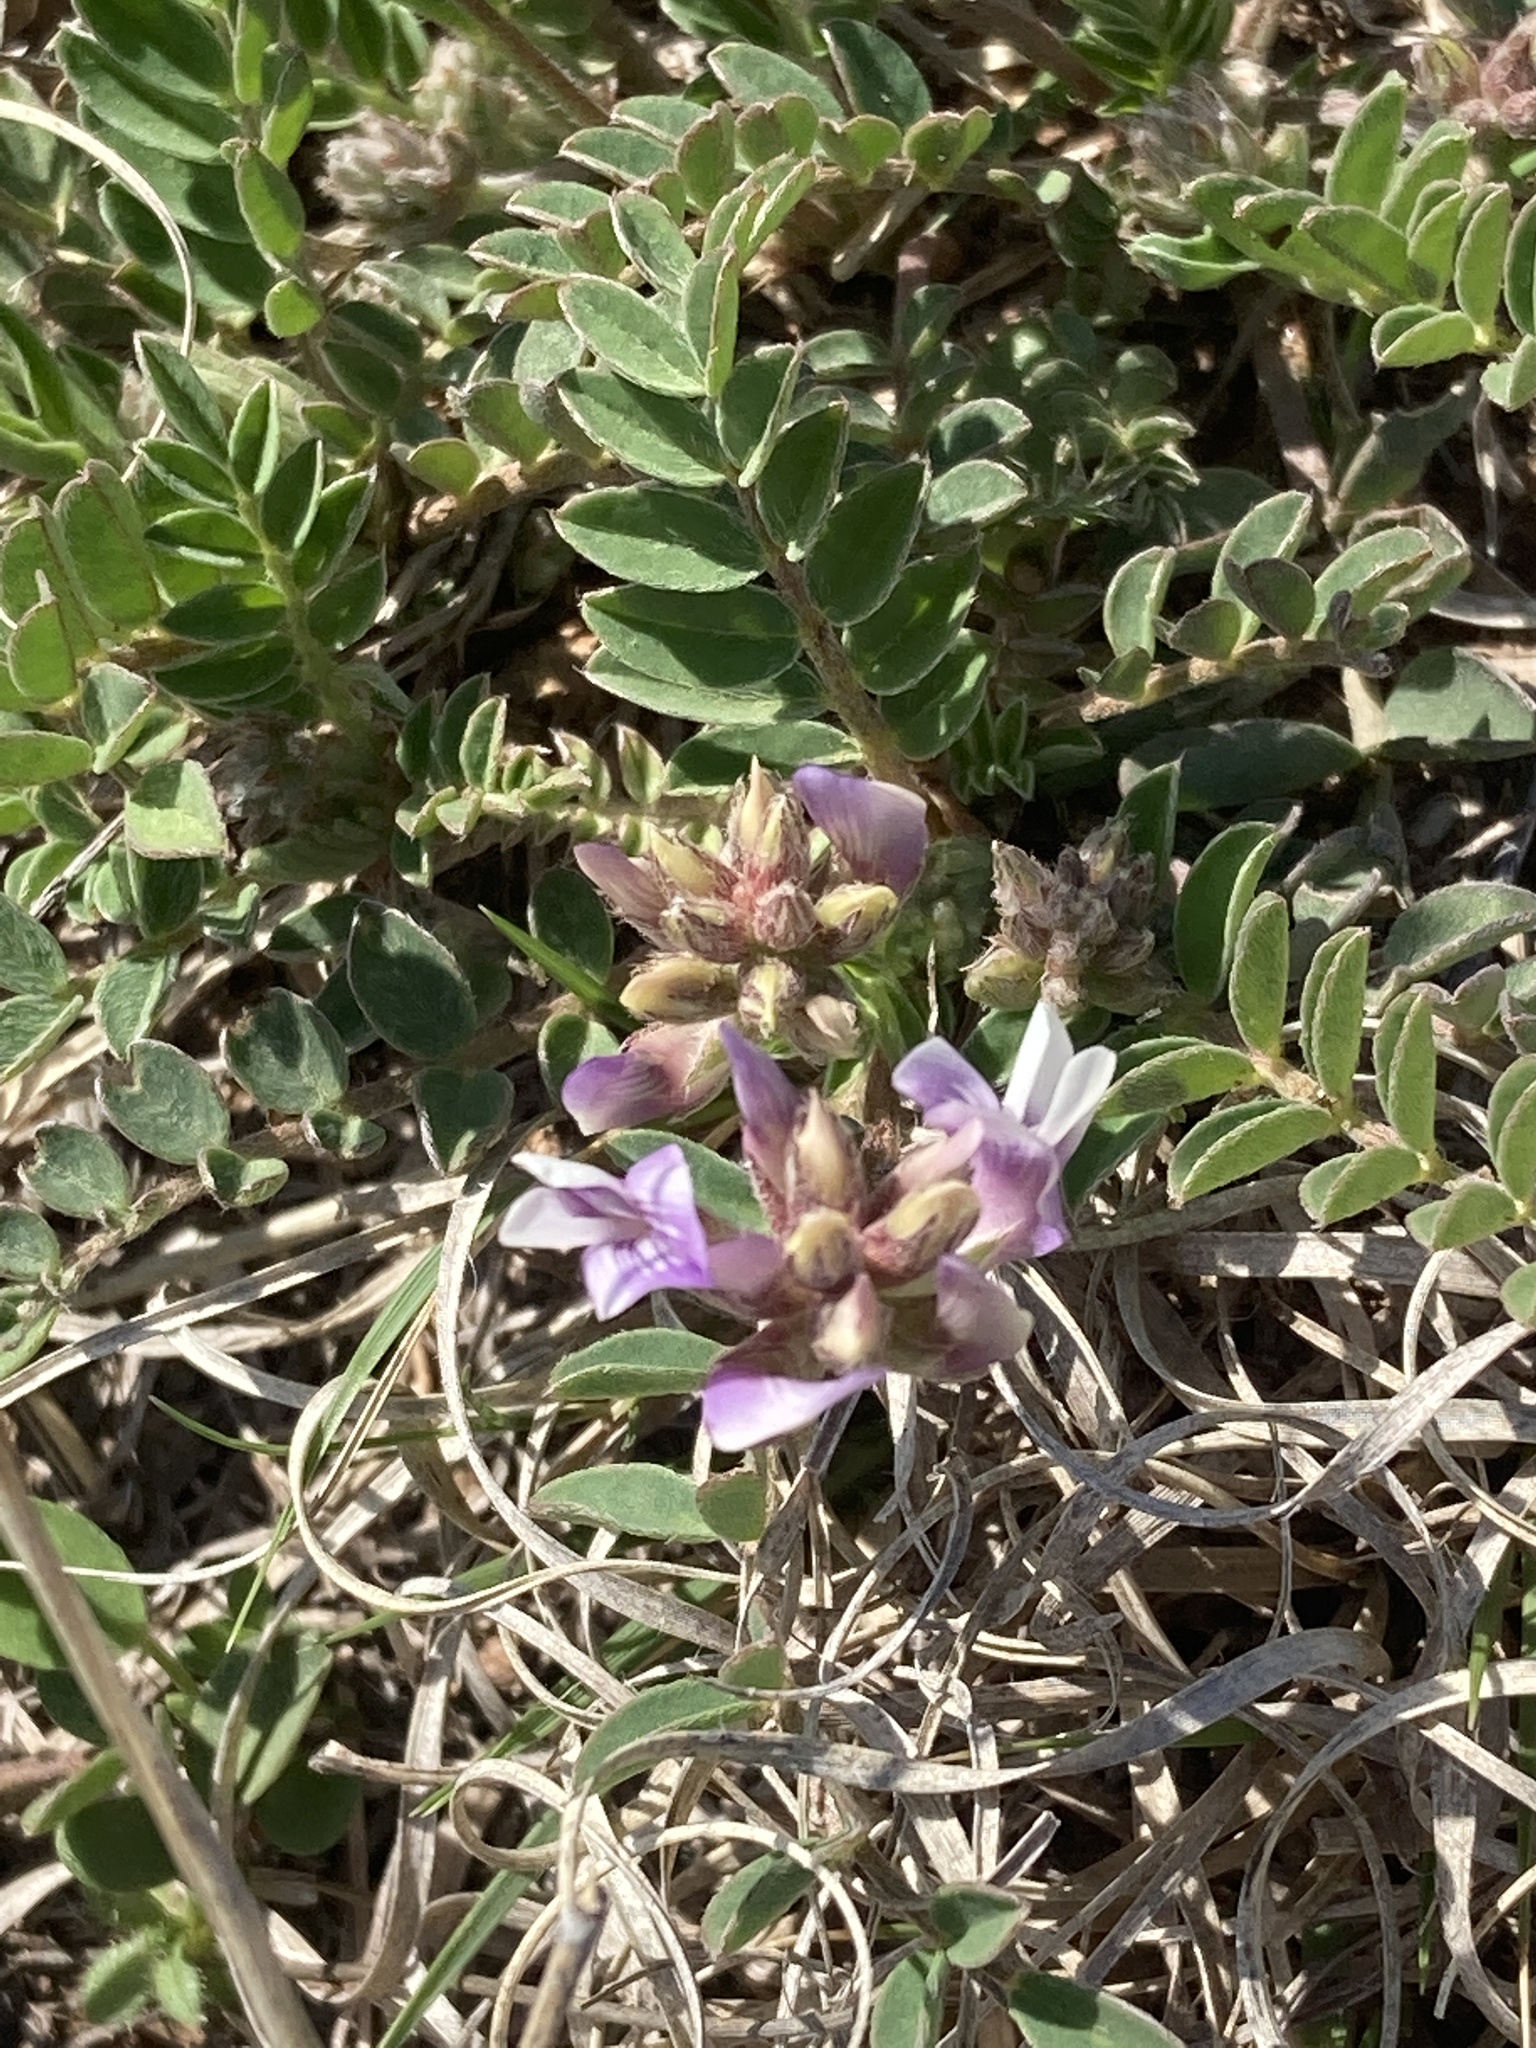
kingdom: Plantae
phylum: Tracheophyta
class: Magnoliopsida
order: Fabales
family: Fabaceae
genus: Astragalus
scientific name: Astragalus lotiflorus
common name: Lotus milk-vetch
